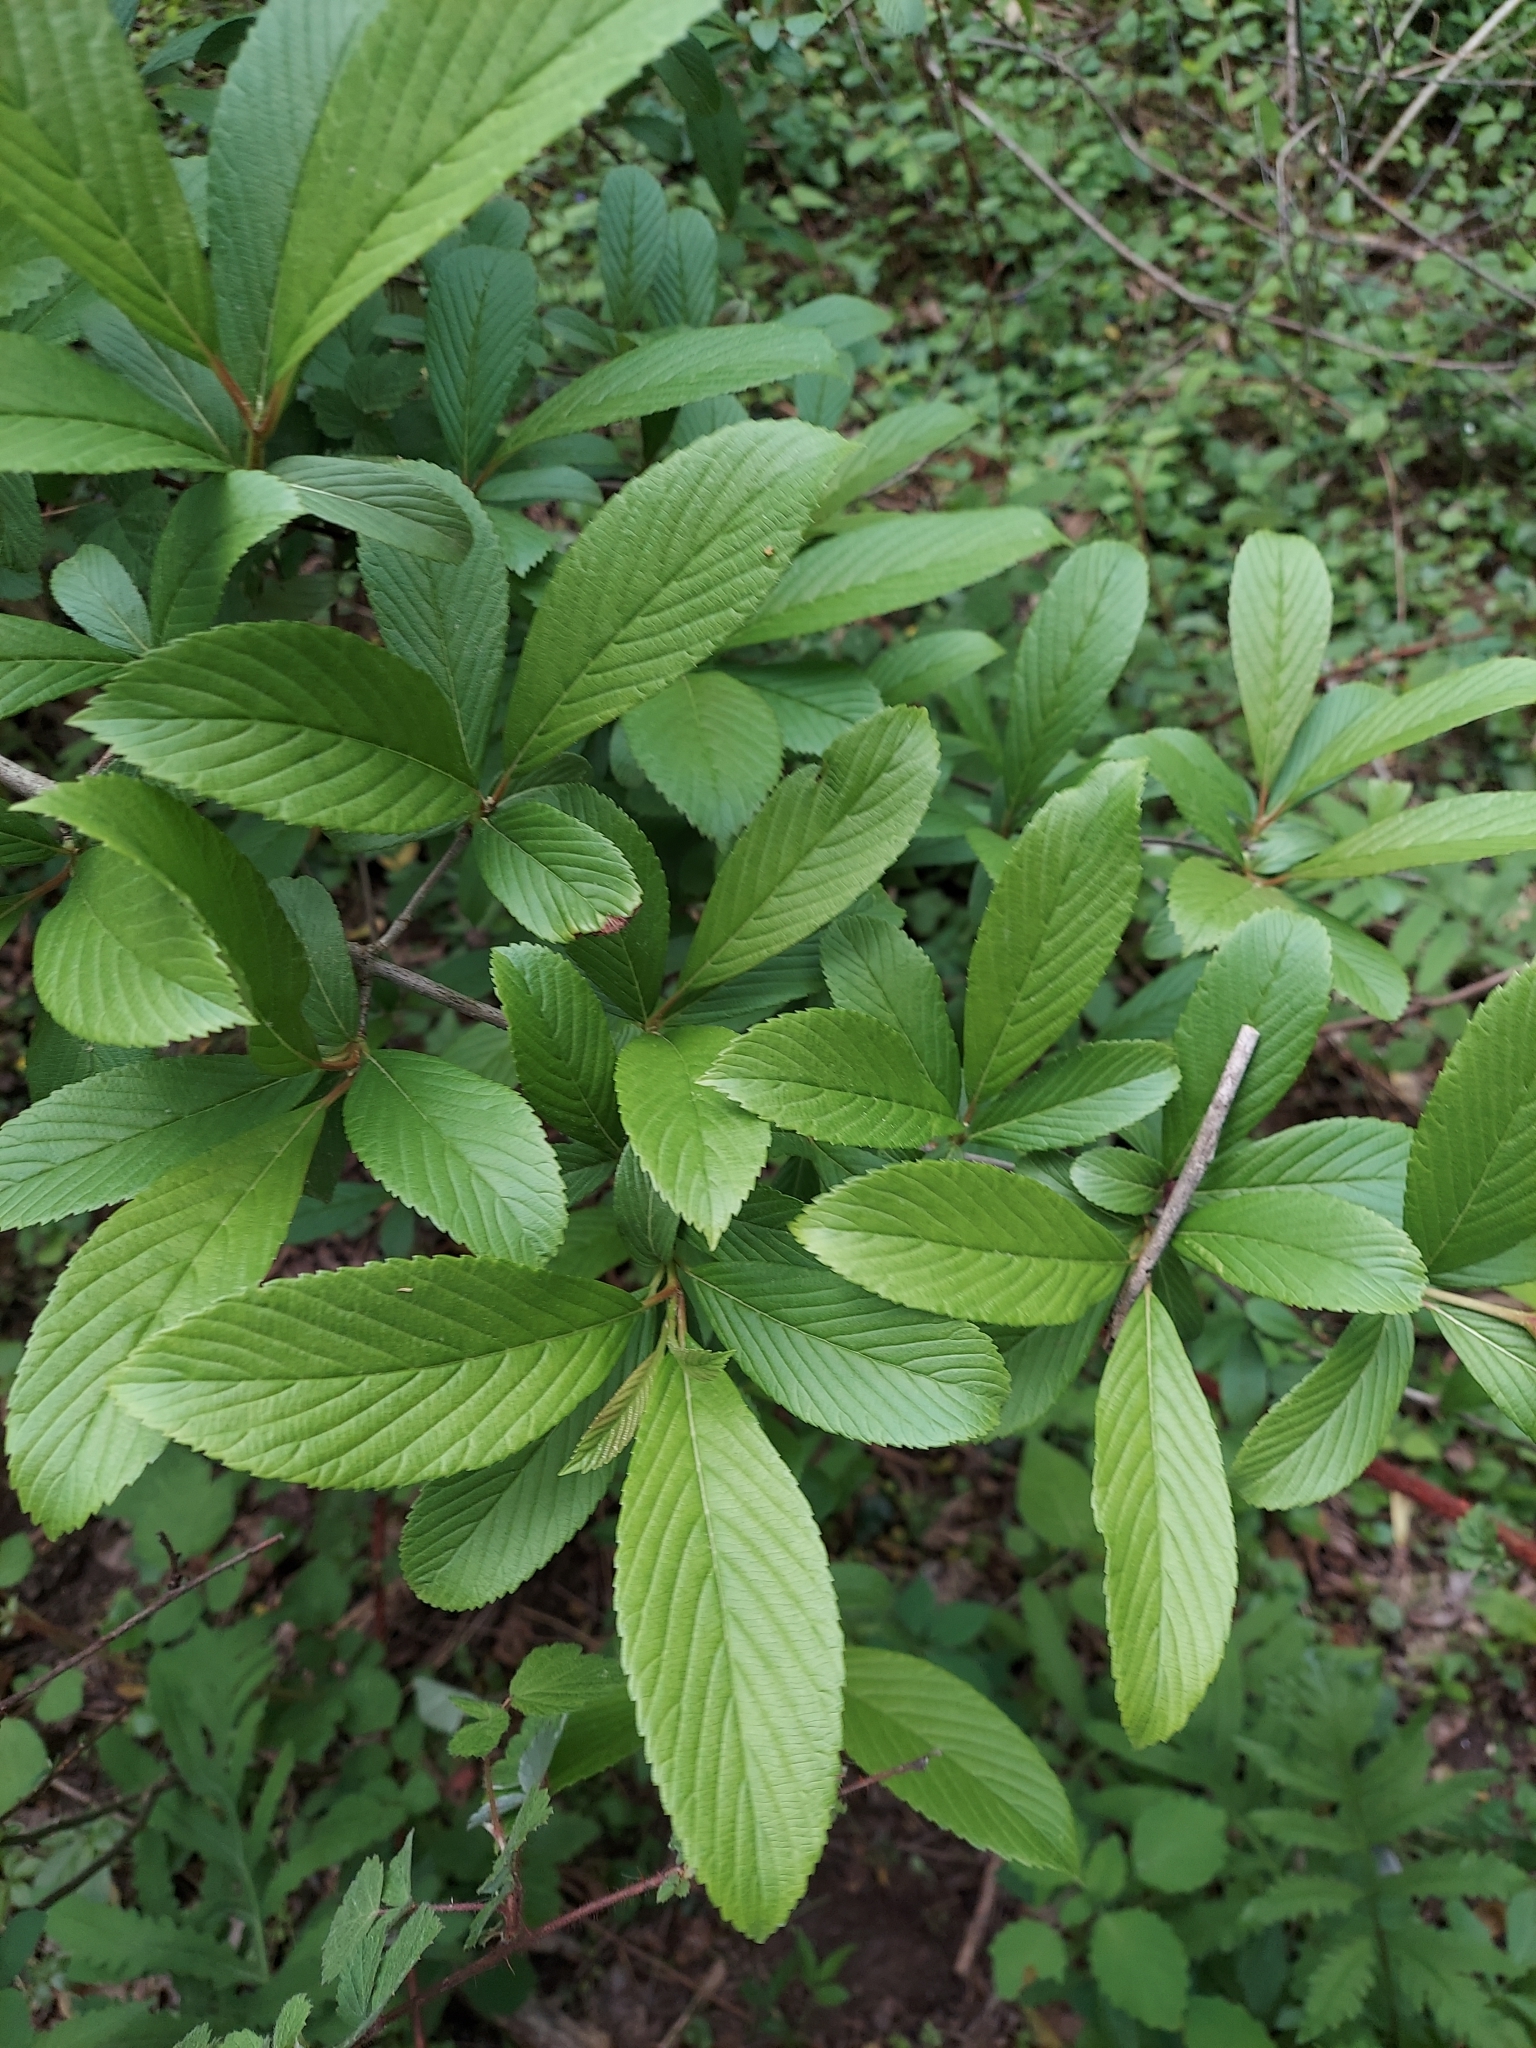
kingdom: Plantae
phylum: Tracheophyta
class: Magnoliopsida
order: Dipsacales
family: Viburnaceae
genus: Viburnum
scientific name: Viburnum sieboldii
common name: Siebold's arrowwood
